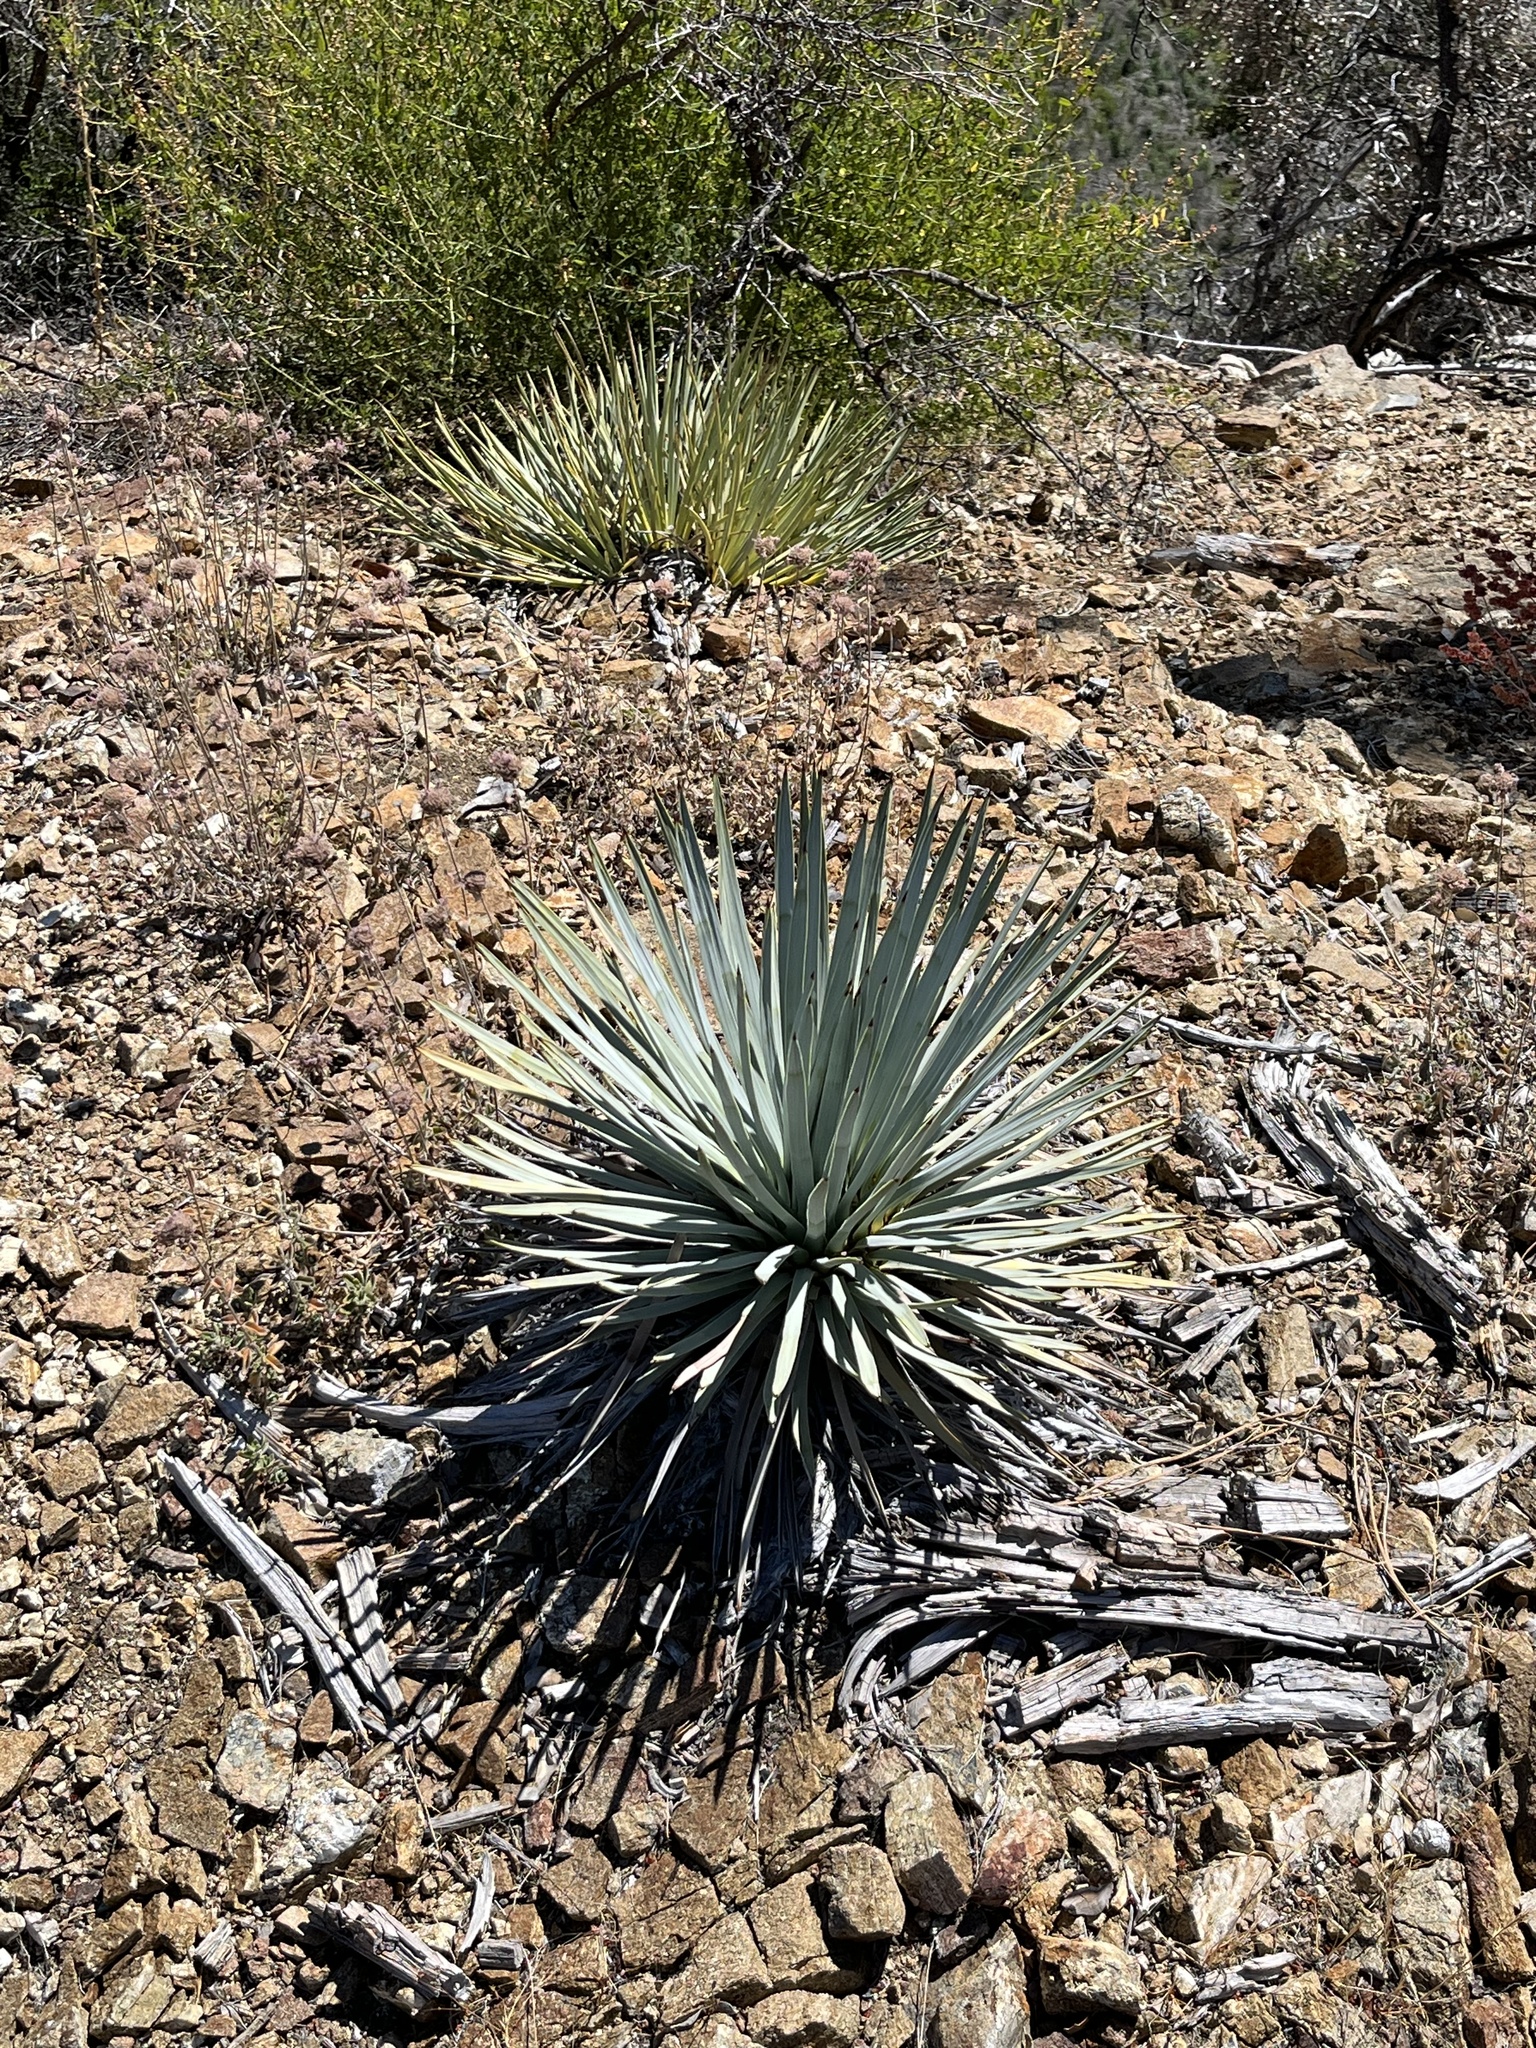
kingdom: Plantae
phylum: Tracheophyta
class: Liliopsida
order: Asparagales
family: Asparagaceae
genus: Hesperoyucca
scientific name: Hesperoyucca whipplei
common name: Our lord's-candle
